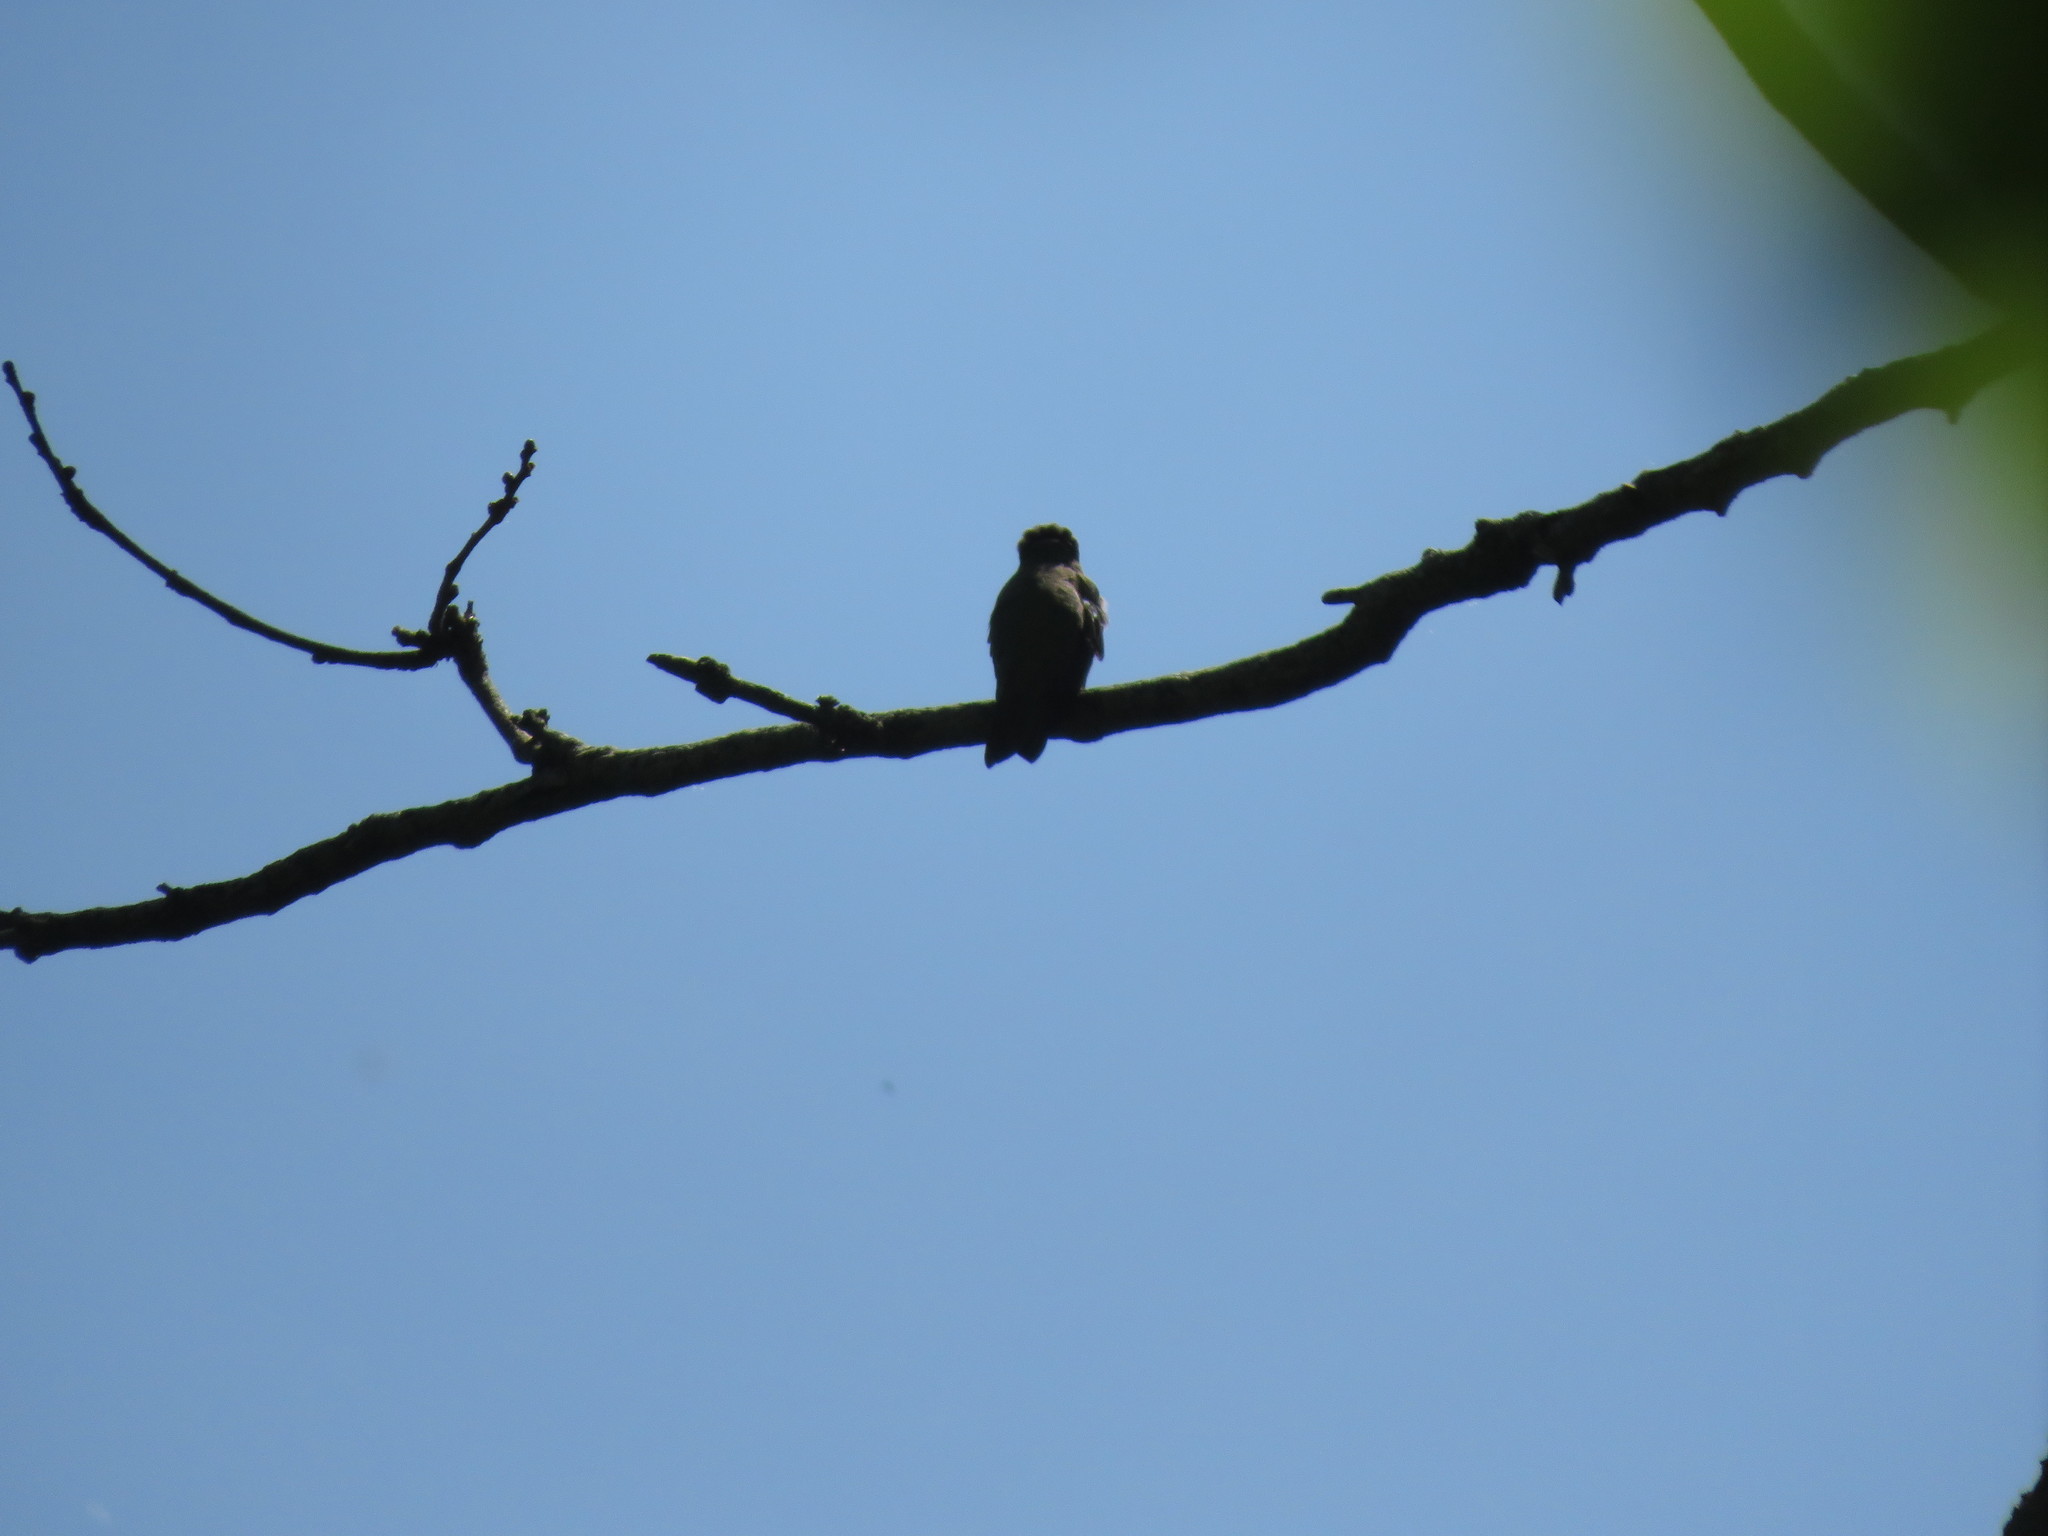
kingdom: Animalia
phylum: Chordata
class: Aves
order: Apodiformes
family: Trochilidae
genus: Hylocharis
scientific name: Hylocharis chrysura
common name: Gilded sapphire
